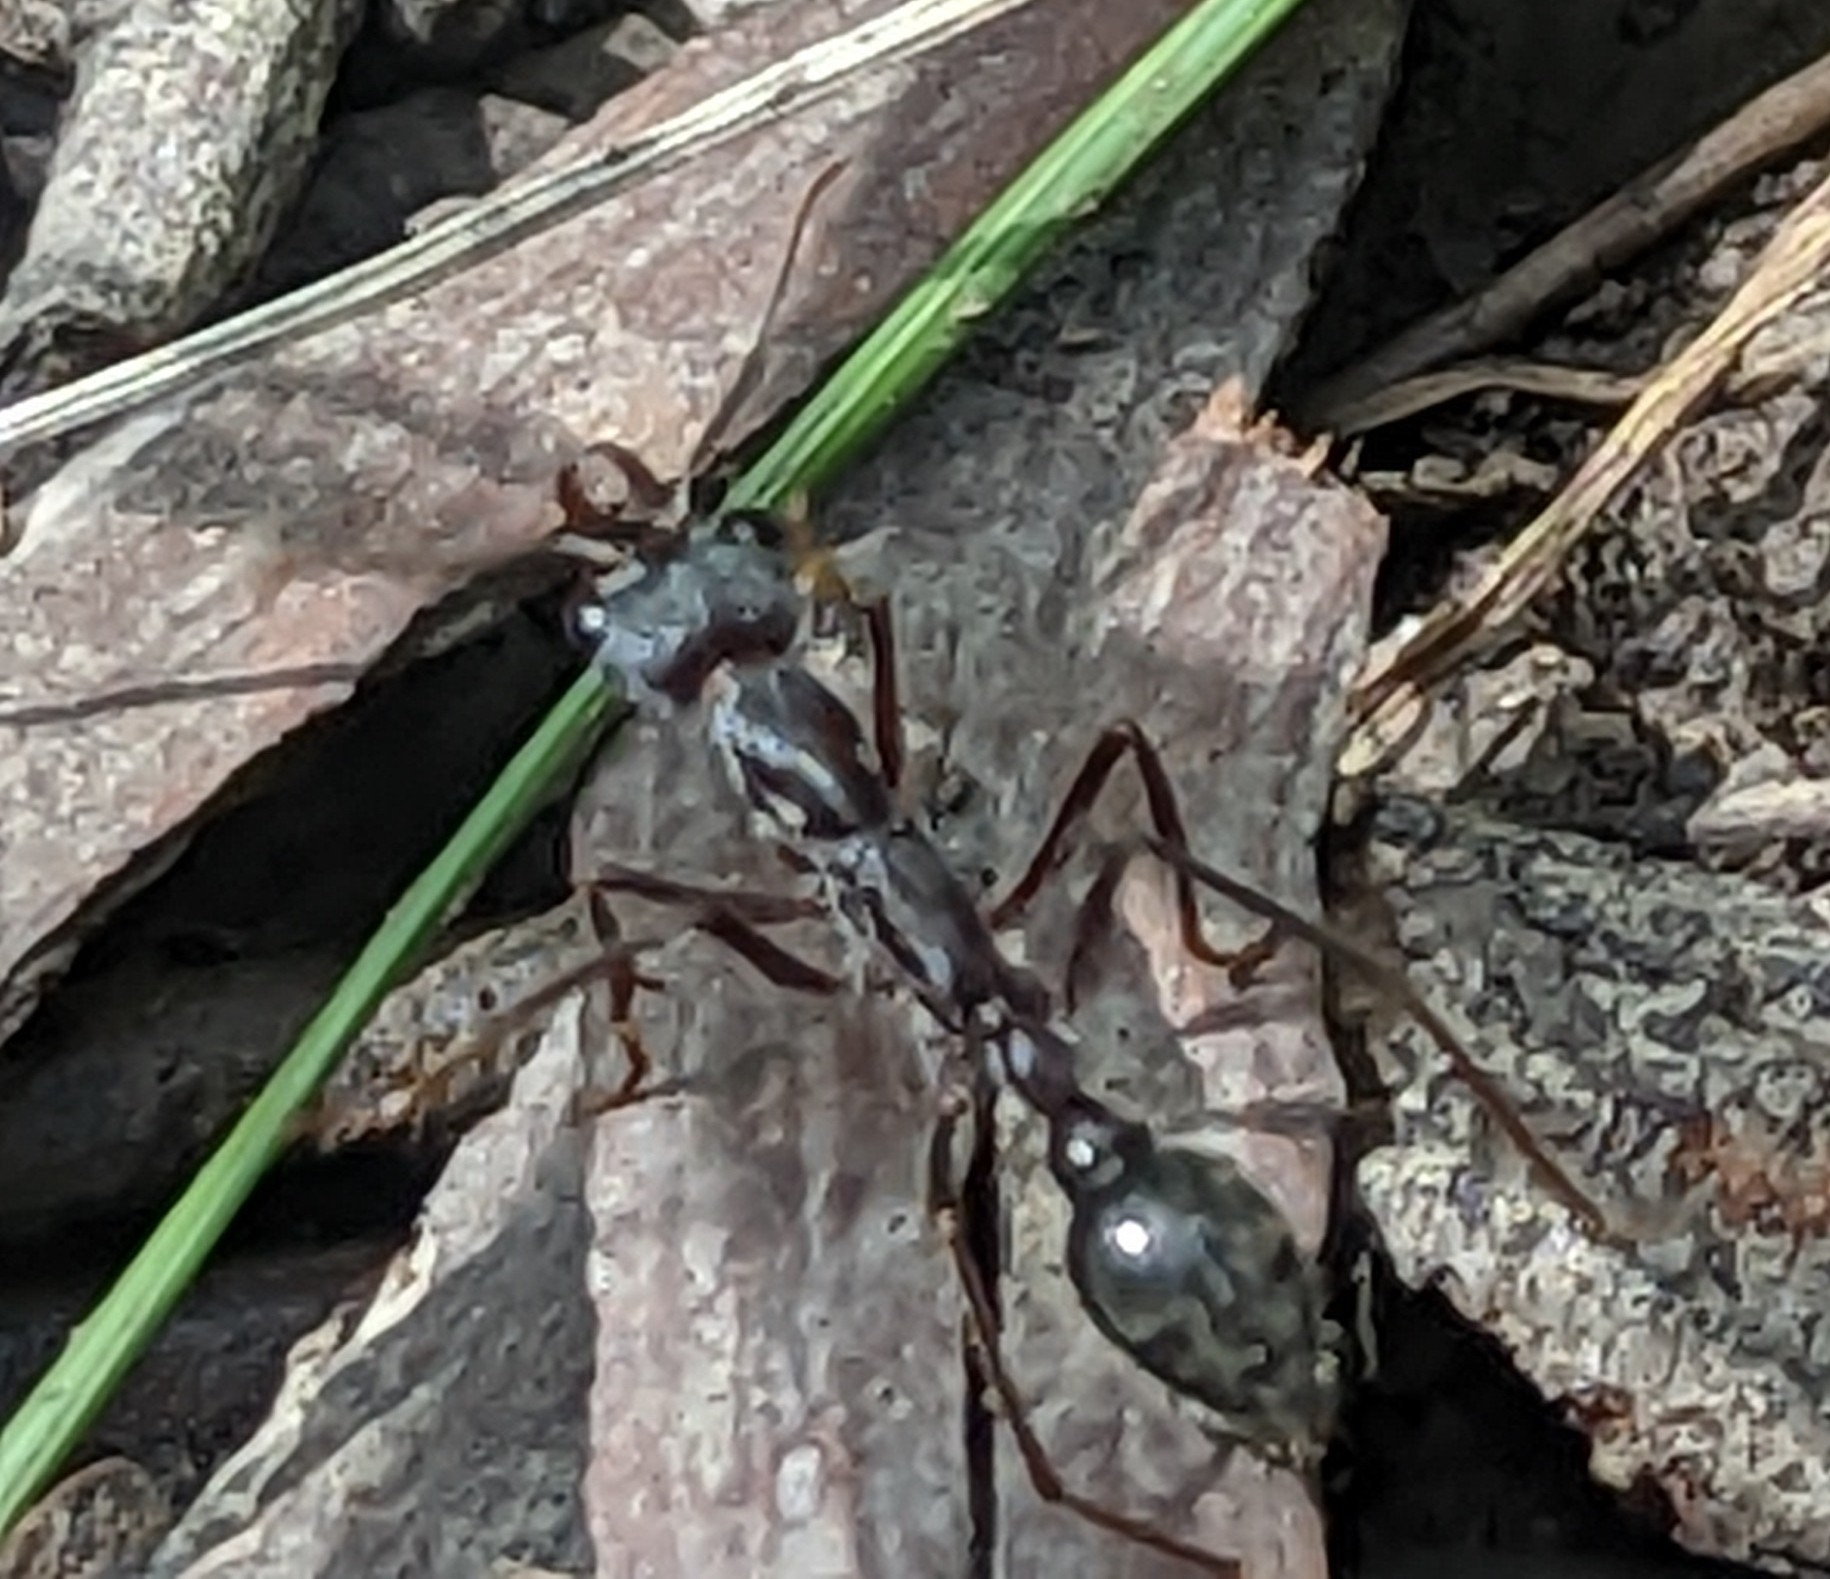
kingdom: Animalia
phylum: Arthropoda
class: Insecta
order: Hymenoptera
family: Formicidae
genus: Myrmecia
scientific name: Myrmecia pyriformis
